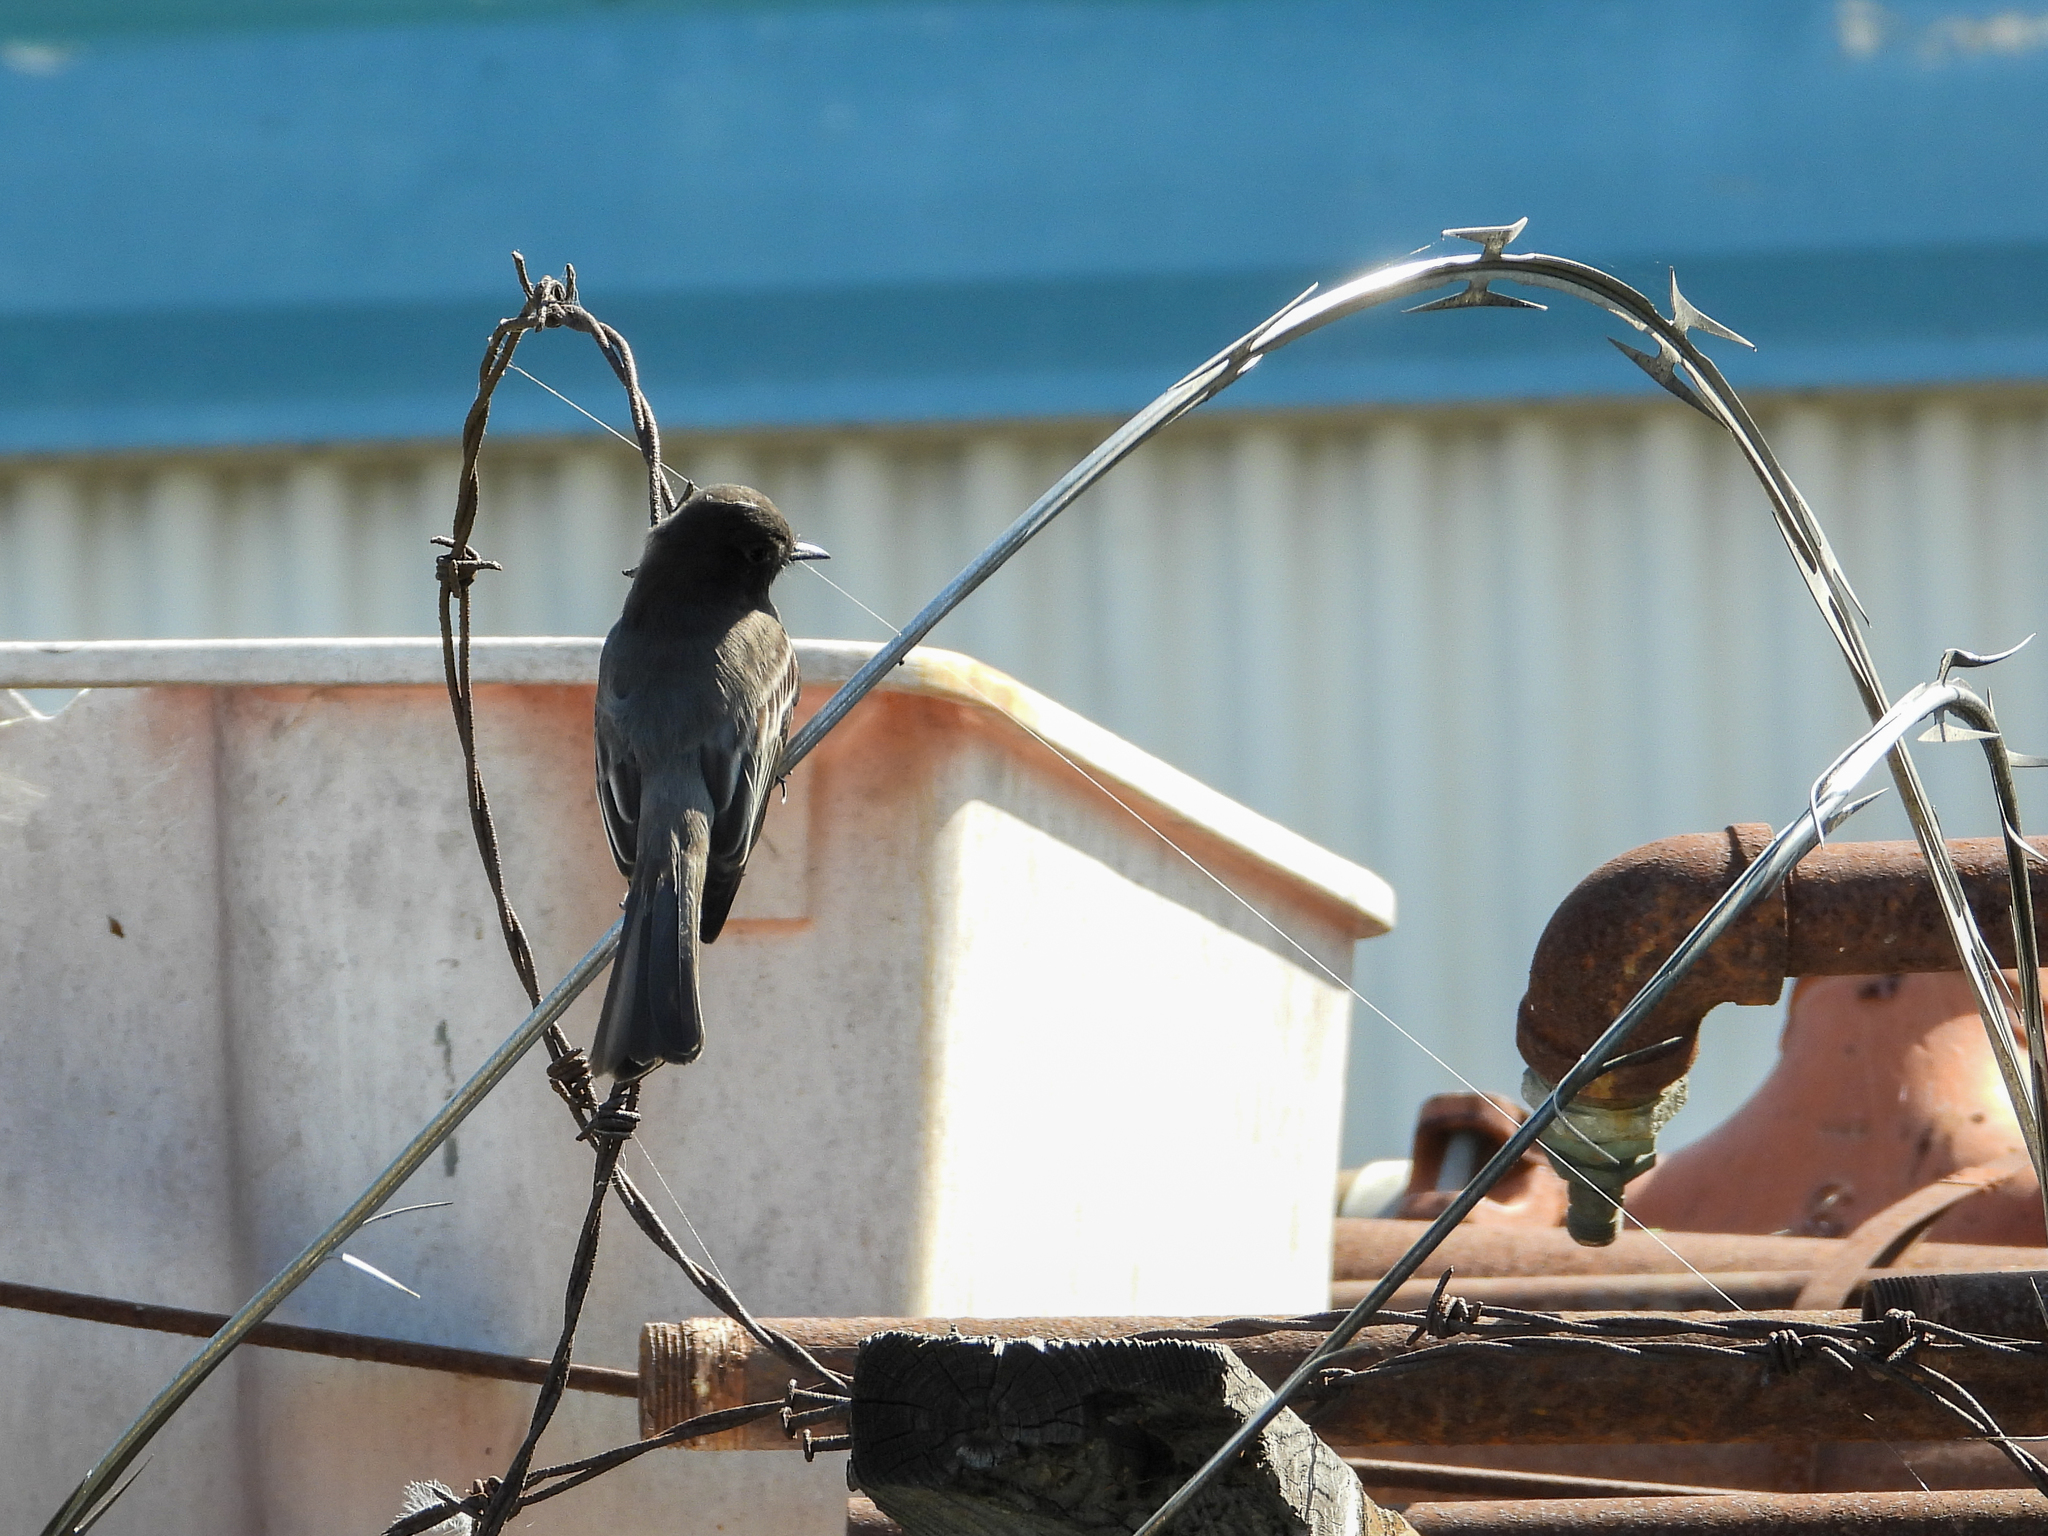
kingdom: Animalia
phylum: Chordata
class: Aves
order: Passeriformes
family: Tyrannidae
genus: Sayornis
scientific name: Sayornis nigricans
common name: Black phoebe
